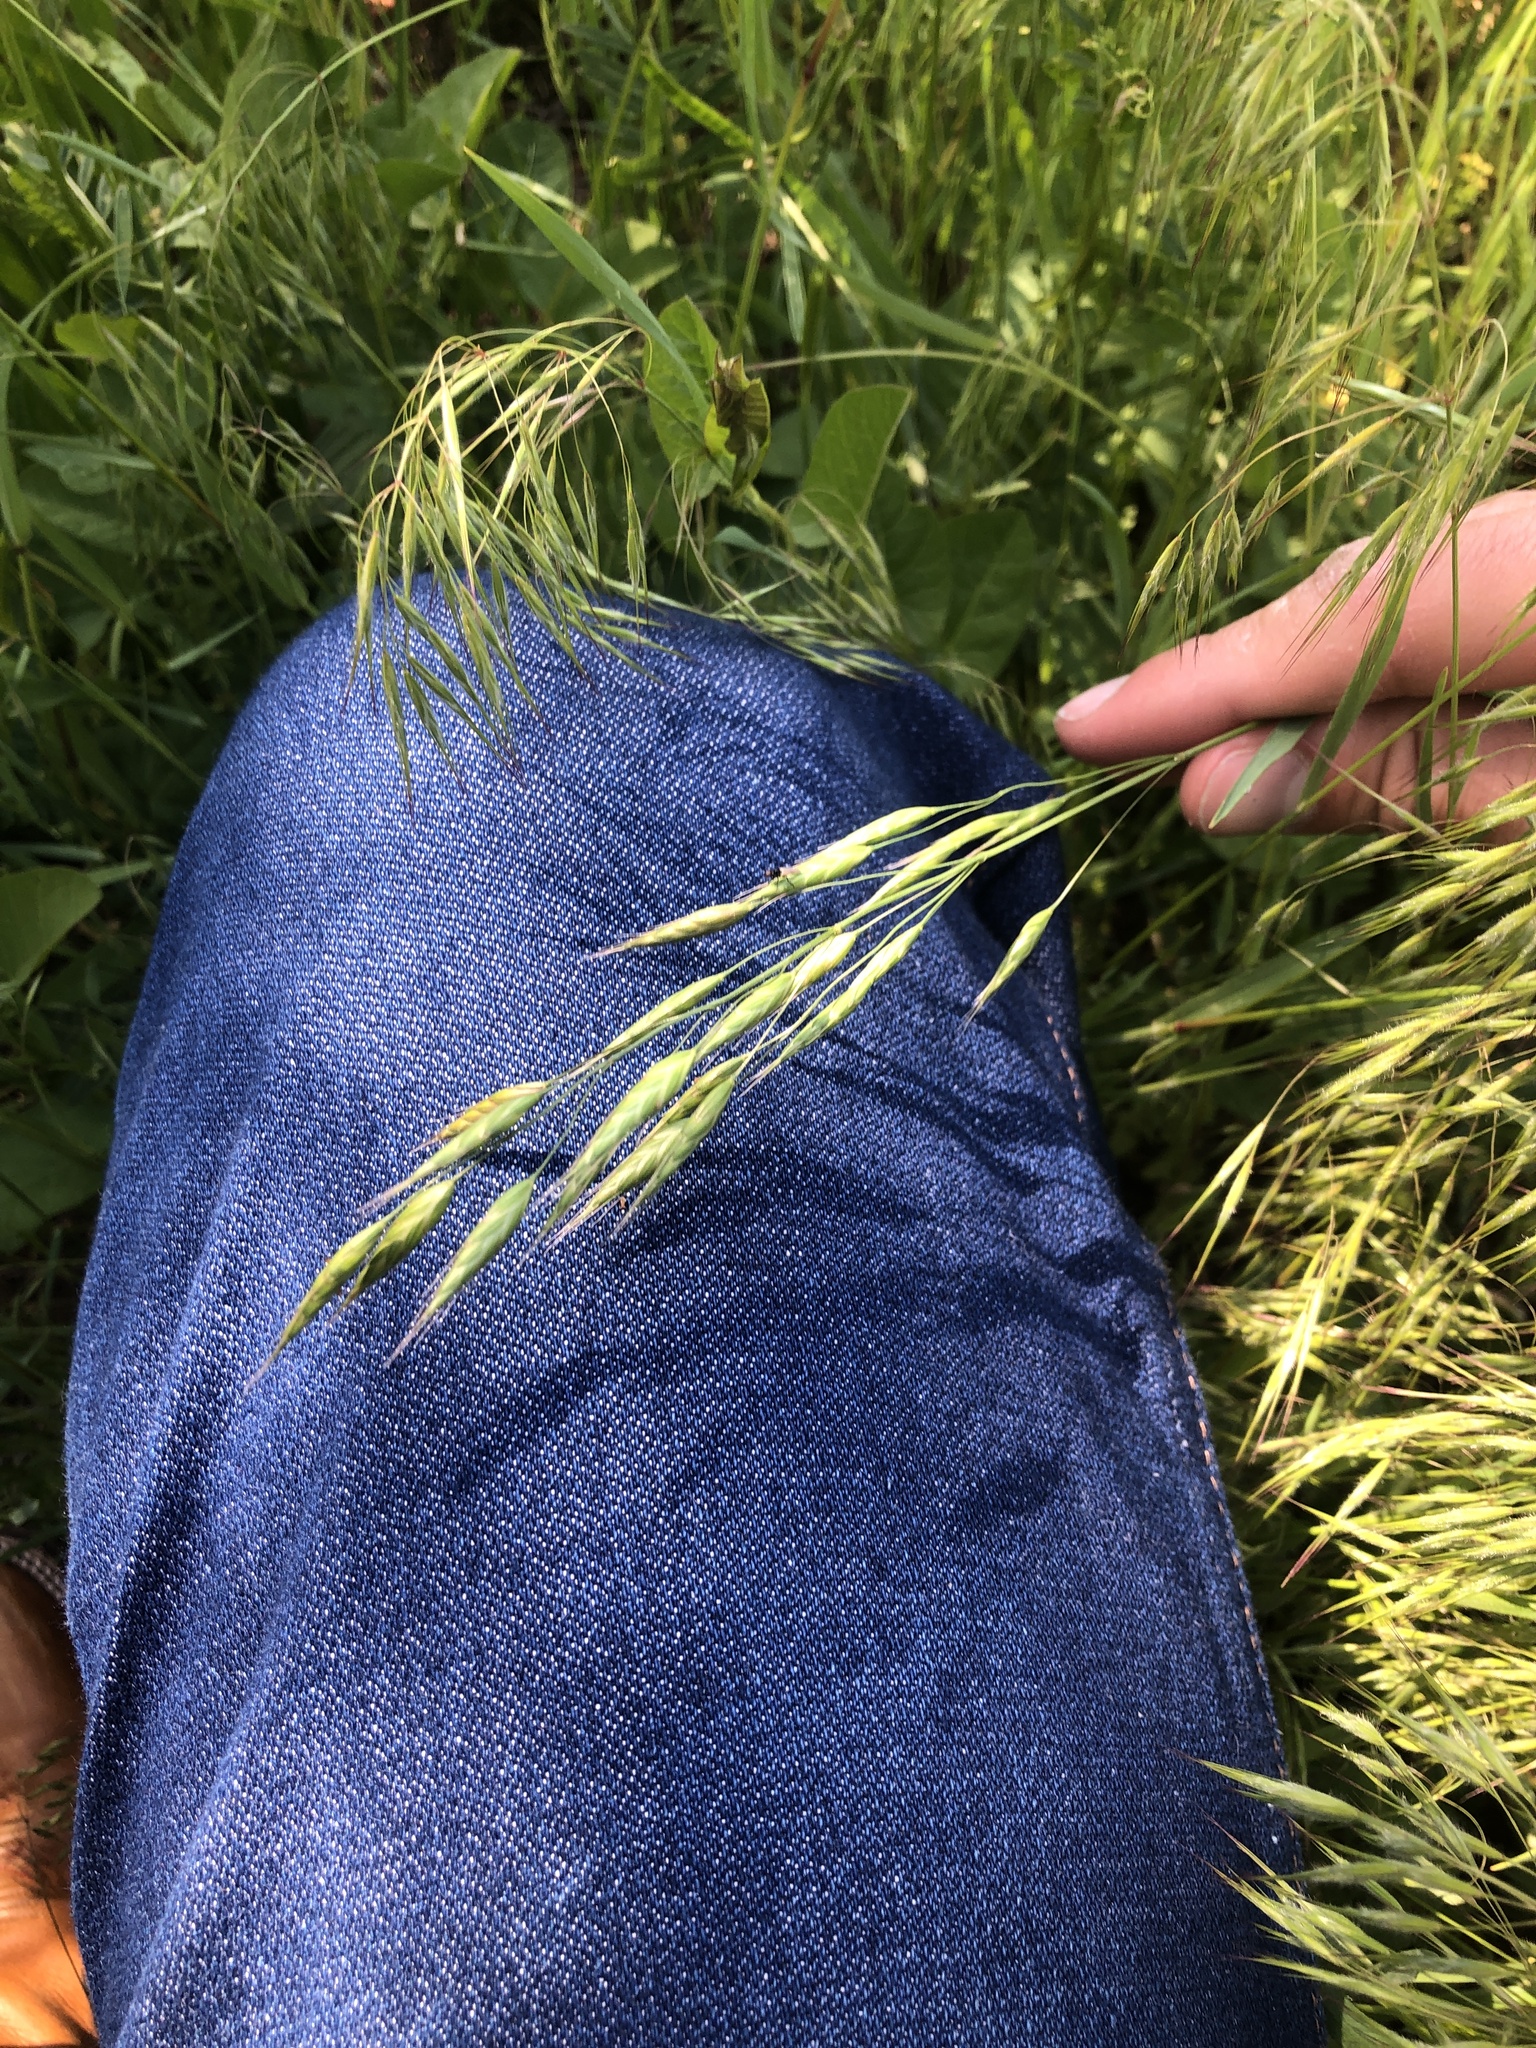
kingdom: Plantae
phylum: Tracheophyta
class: Liliopsida
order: Poales
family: Poaceae
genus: Bromus
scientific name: Bromus japonicus
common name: Japanese brome
